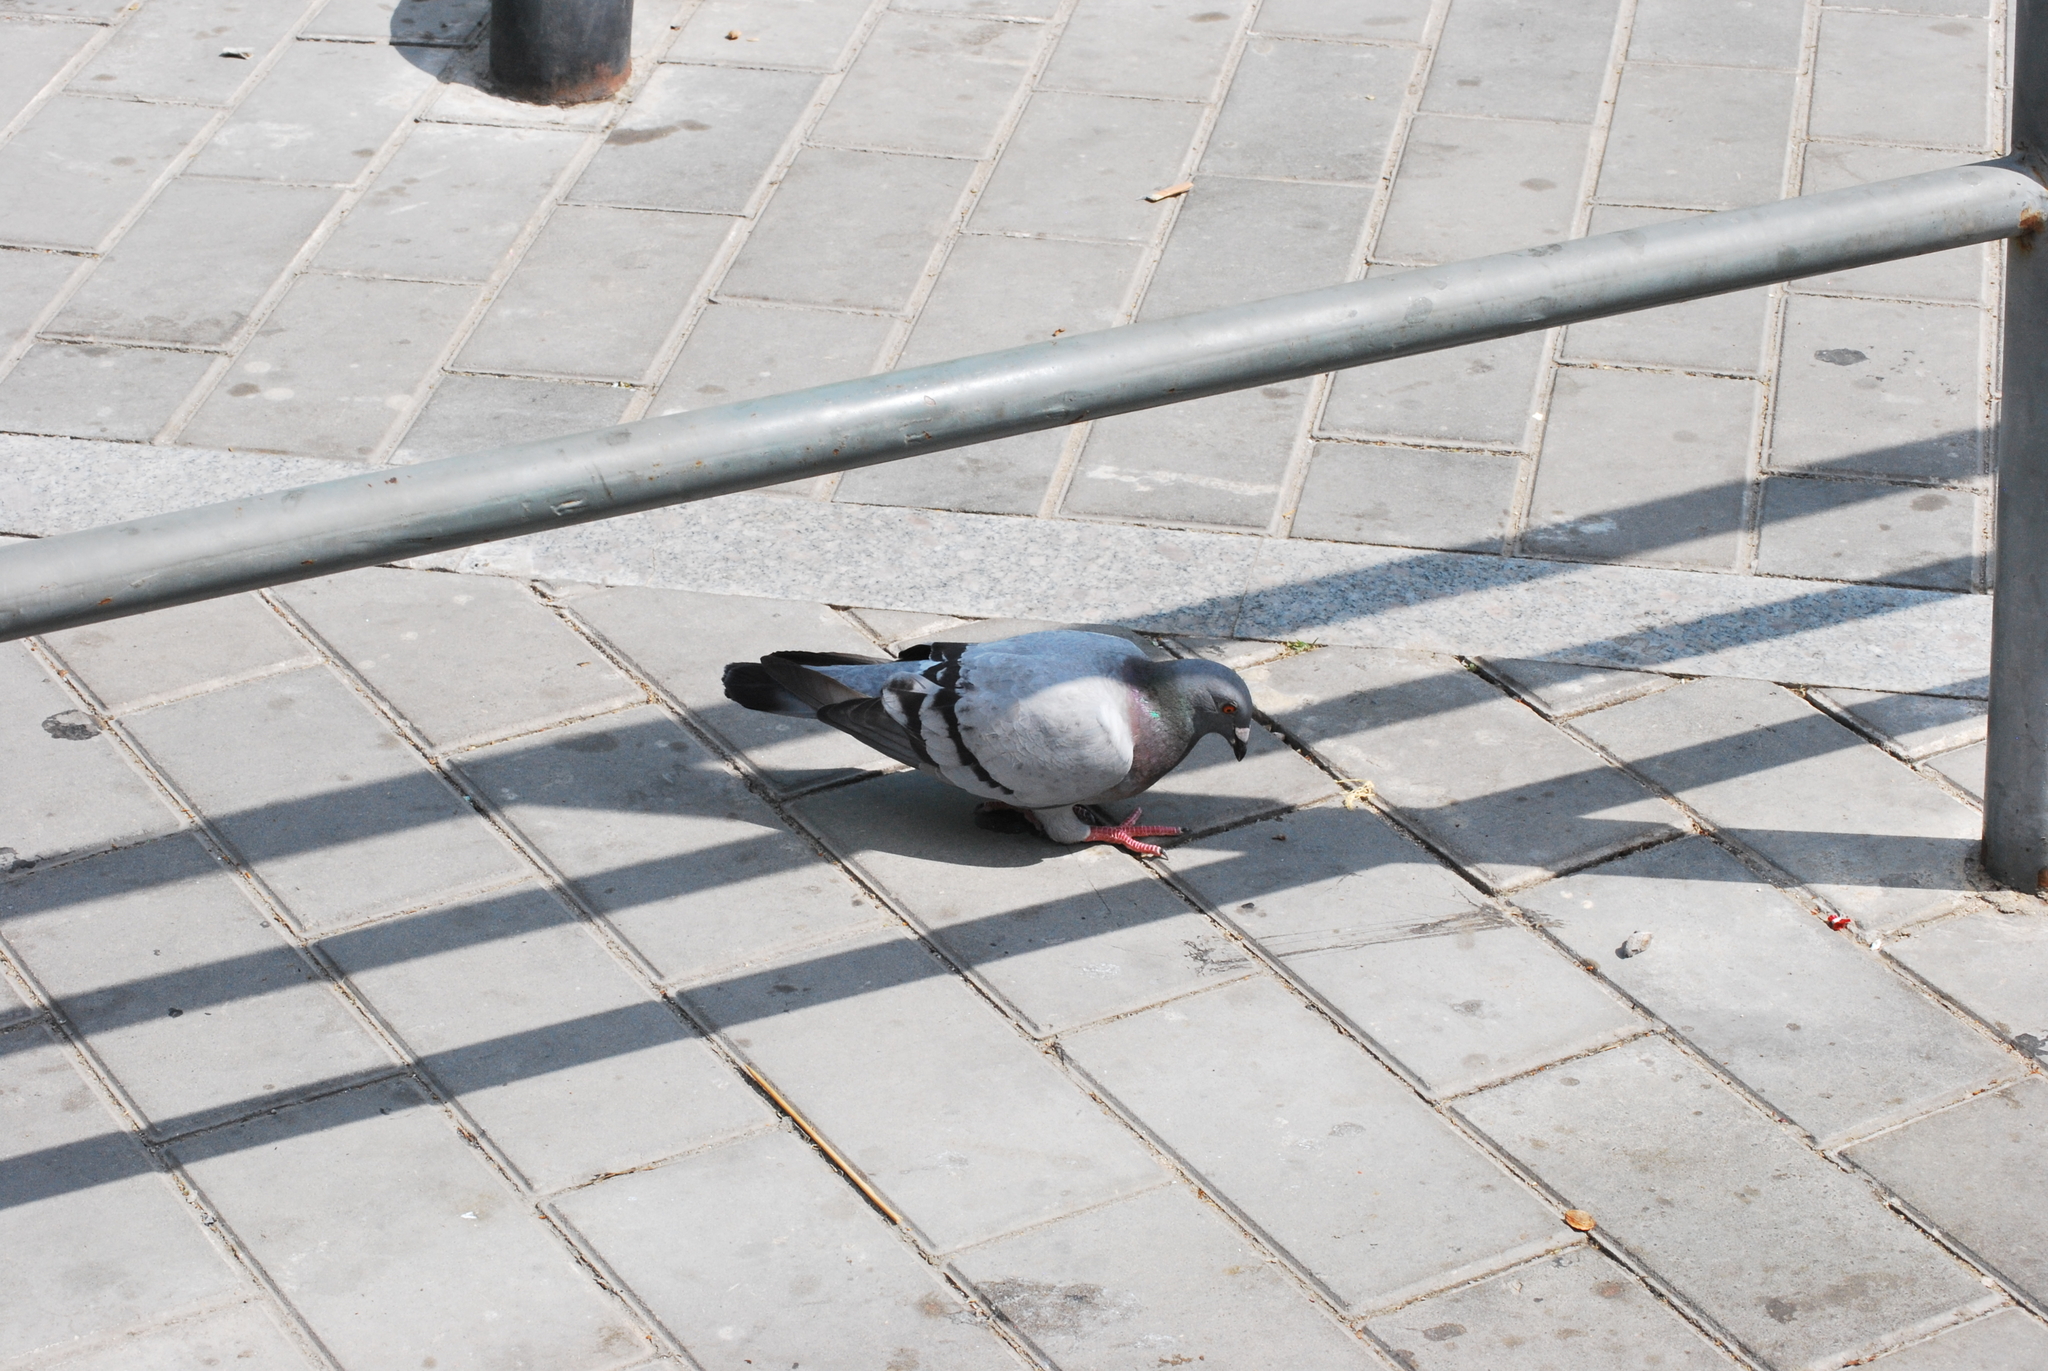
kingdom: Animalia
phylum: Chordata
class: Aves
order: Columbiformes
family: Columbidae
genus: Columba
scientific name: Columba livia
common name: Rock pigeon
